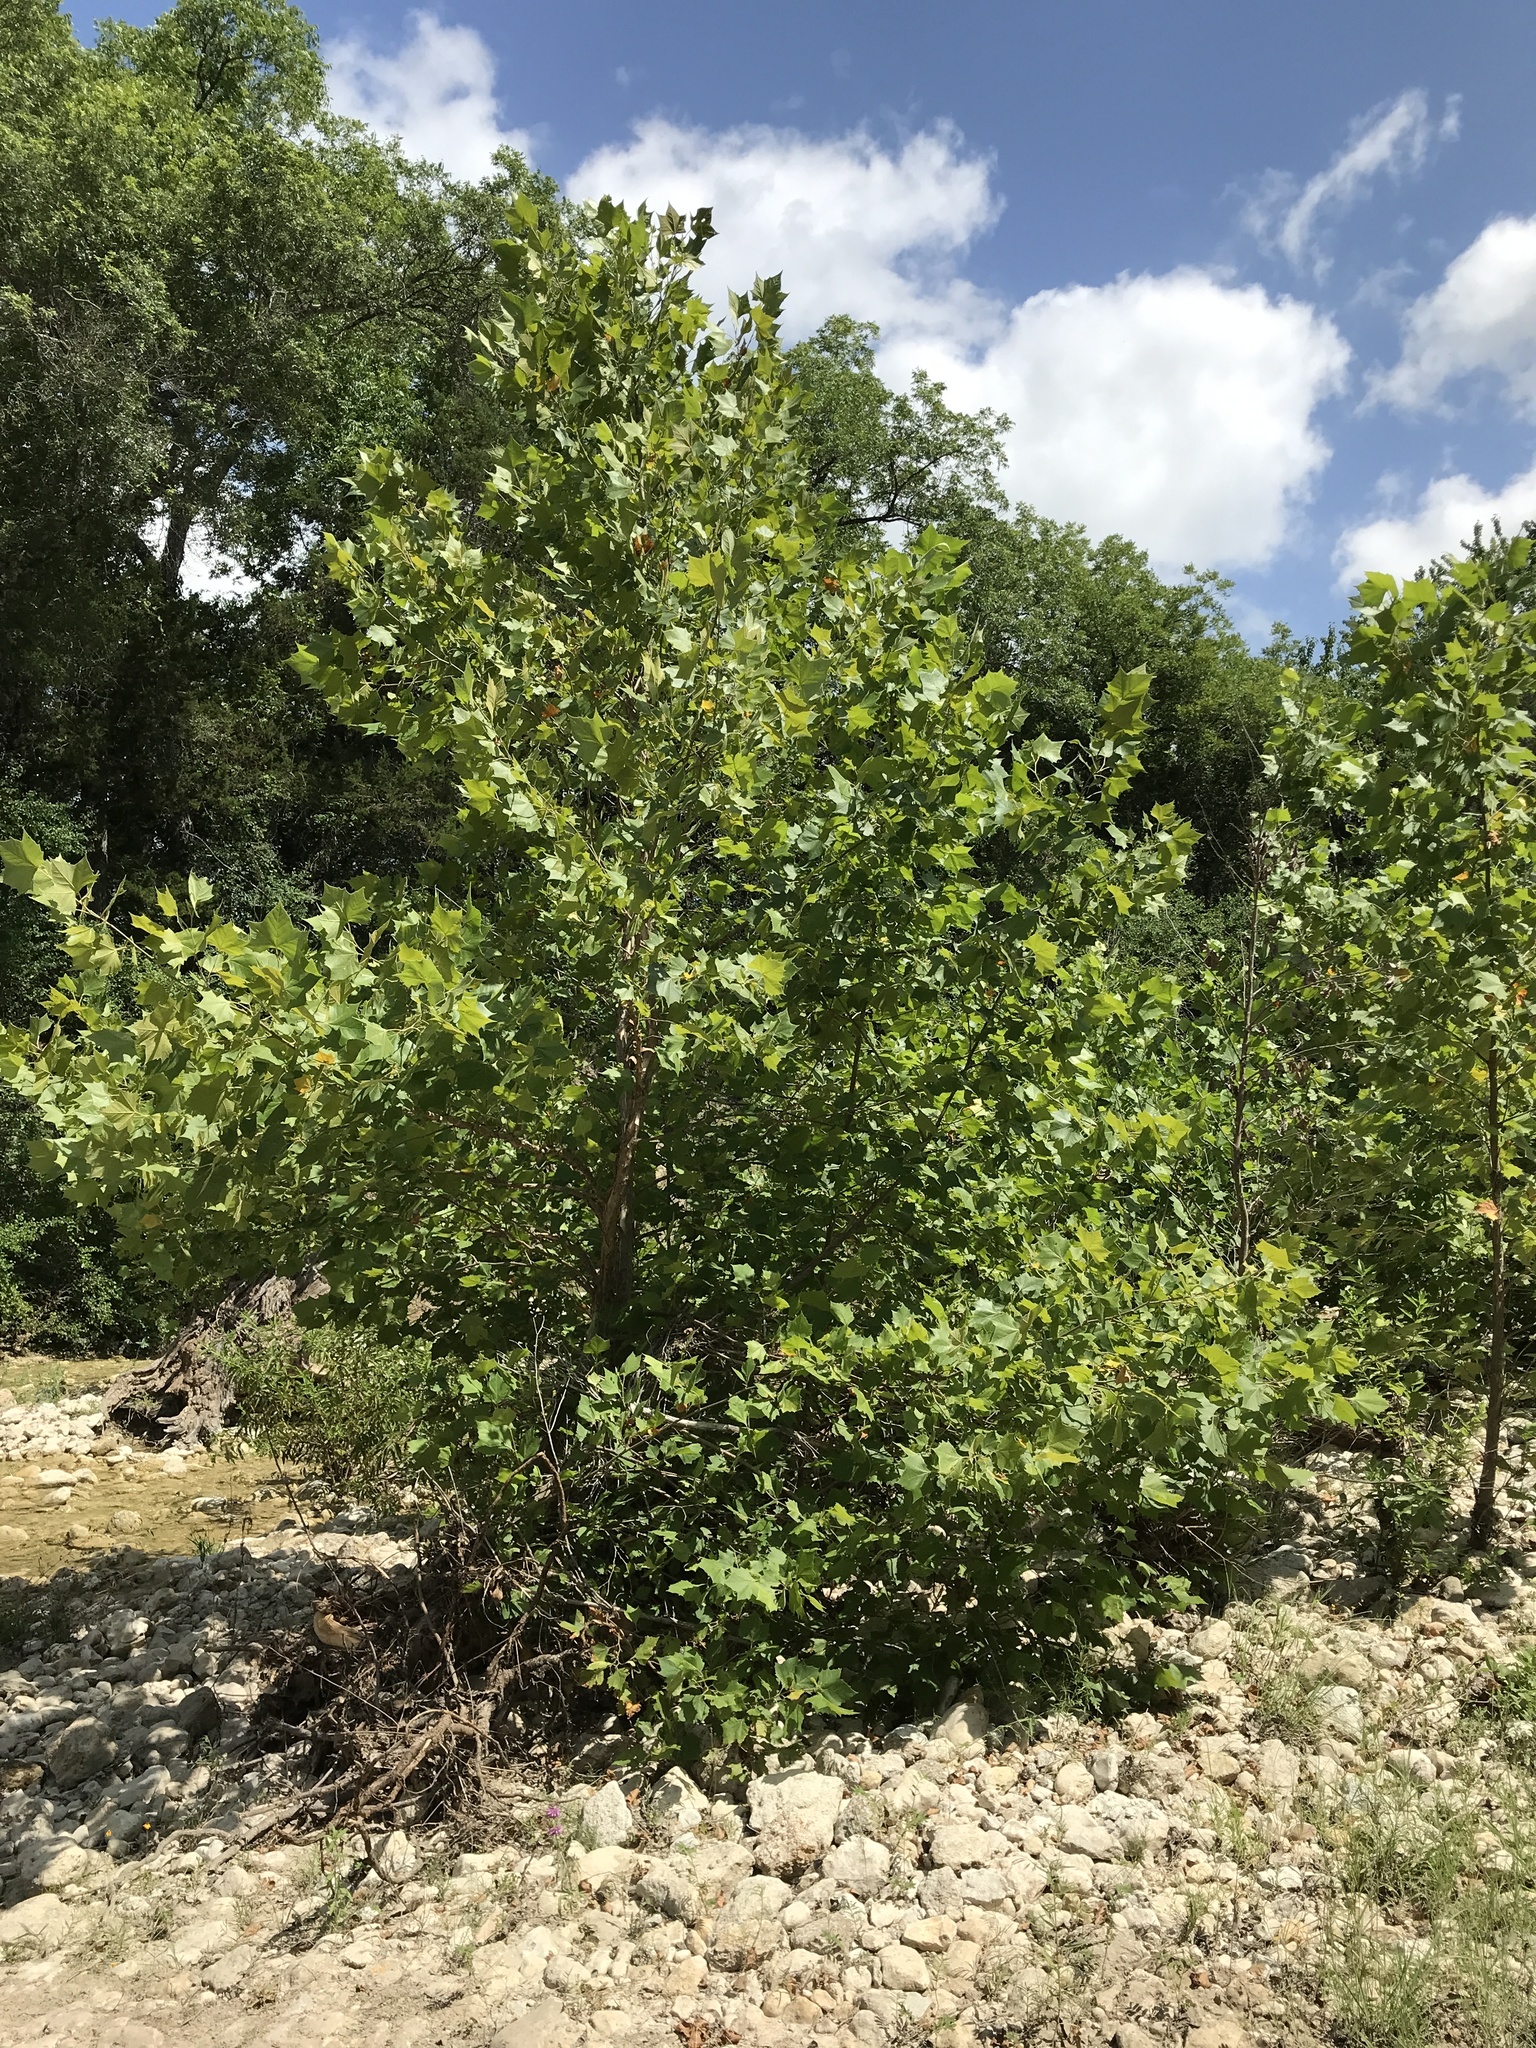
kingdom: Plantae
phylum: Tracheophyta
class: Magnoliopsida
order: Proteales
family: Platanaceae
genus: Platanus
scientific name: Platanus occidentalis
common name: American sycamore
